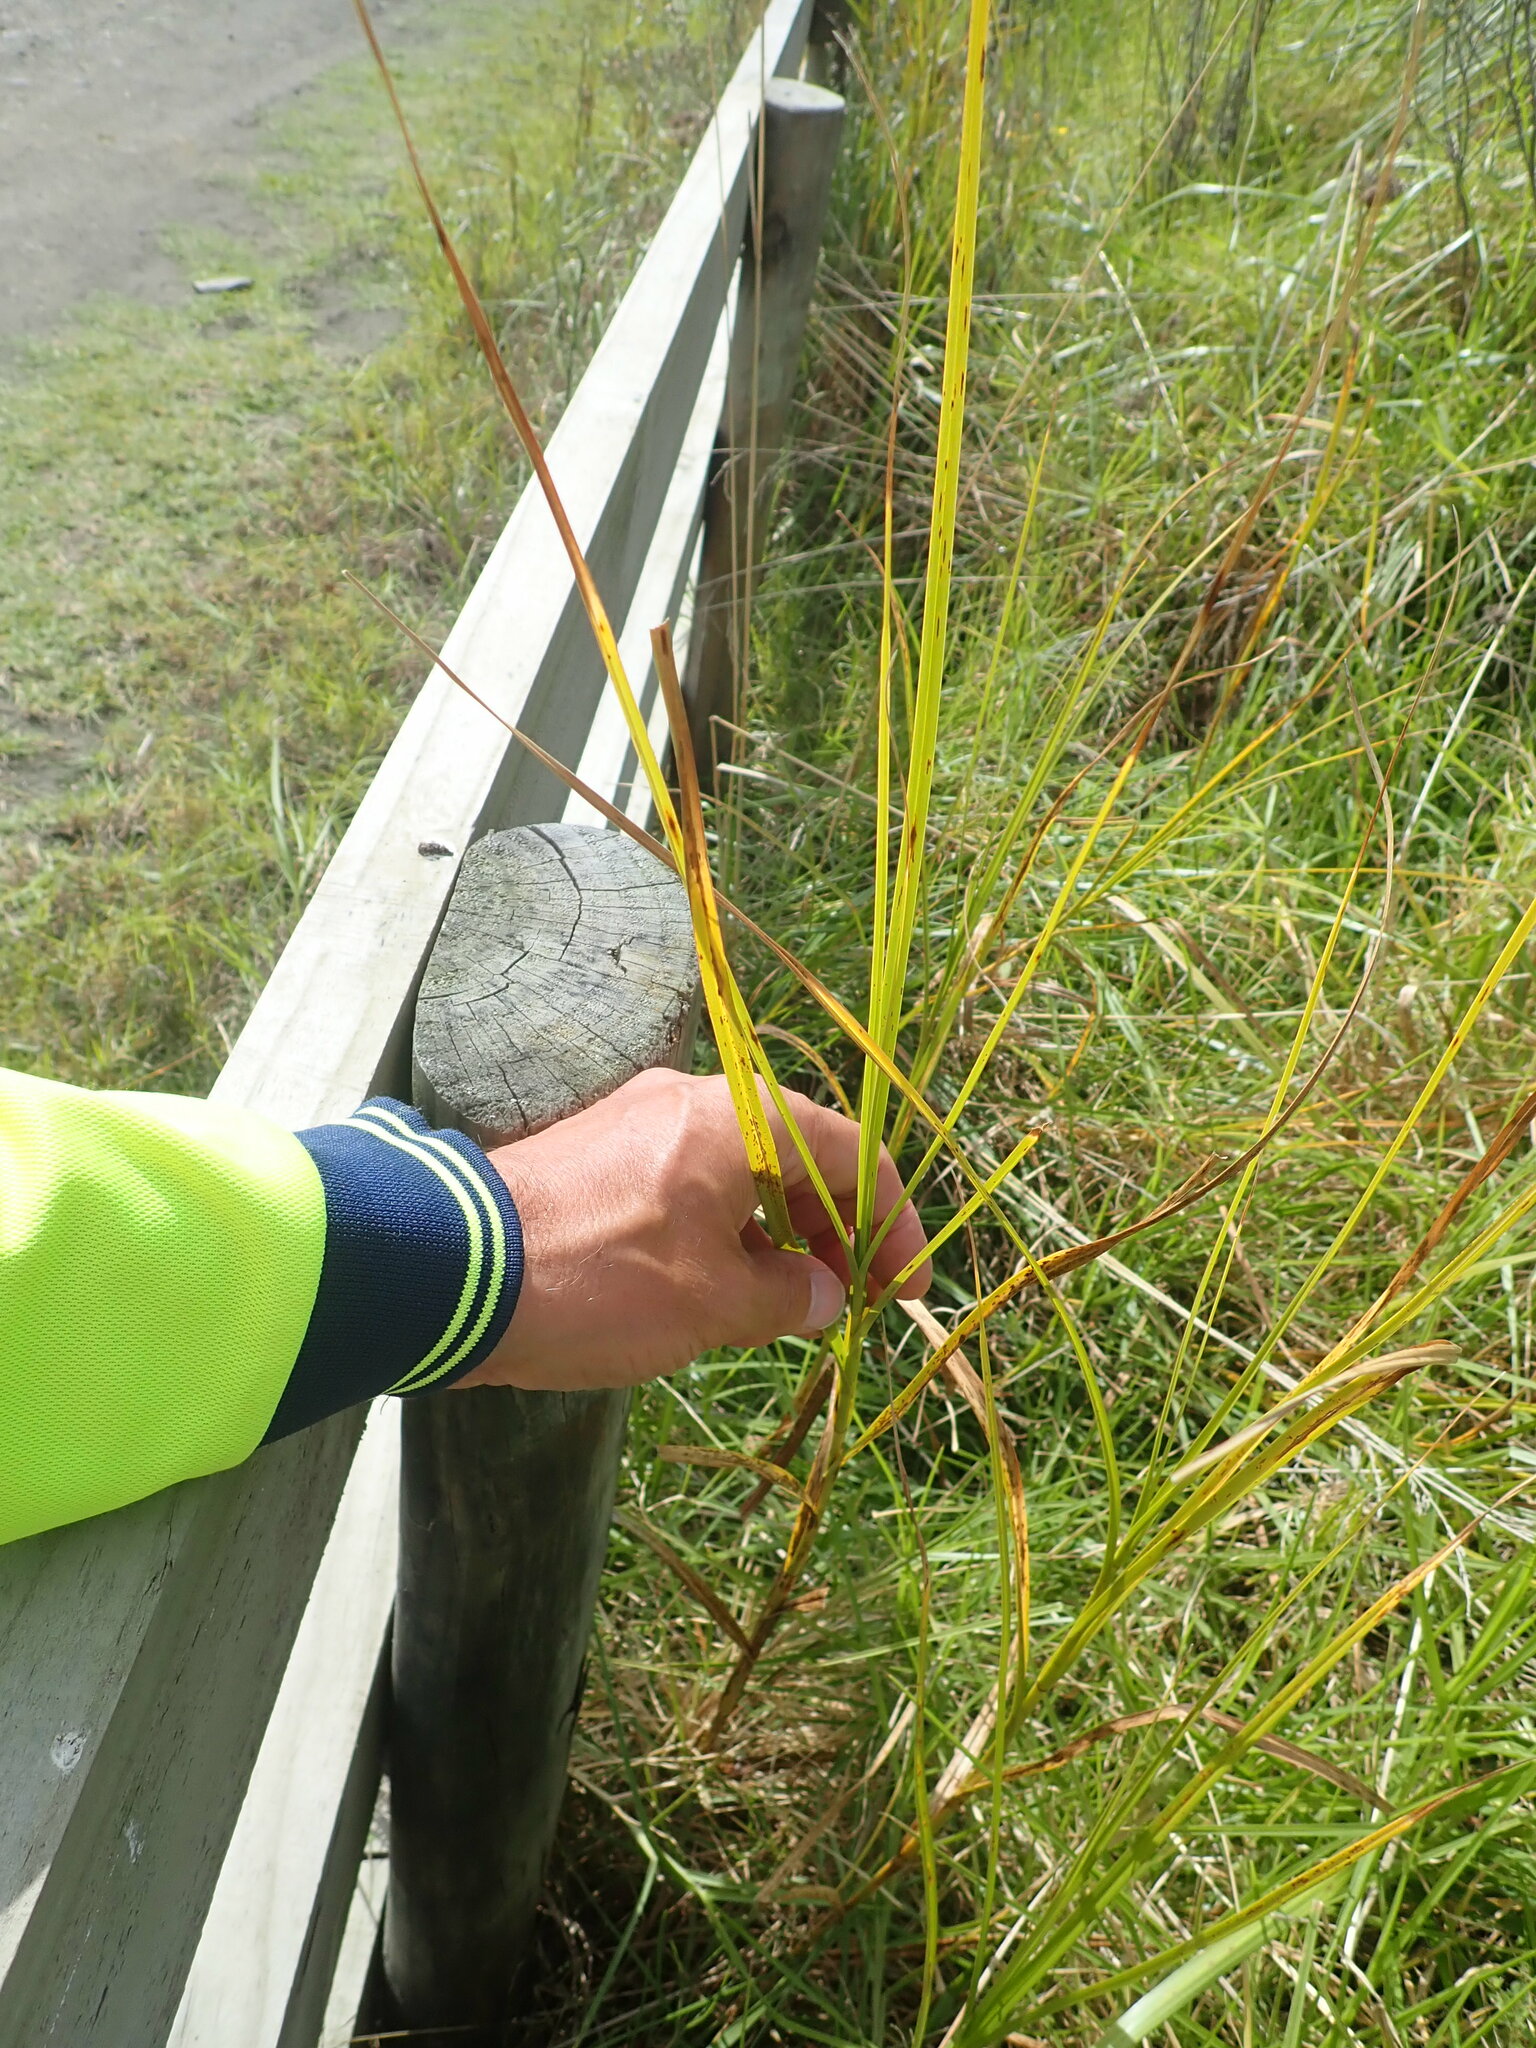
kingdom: Plantae
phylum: Tracheophyta
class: Liliopsida
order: Poales
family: Cyperaceae
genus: Bolboschoenus
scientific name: Bolboschoenus caldwellii
